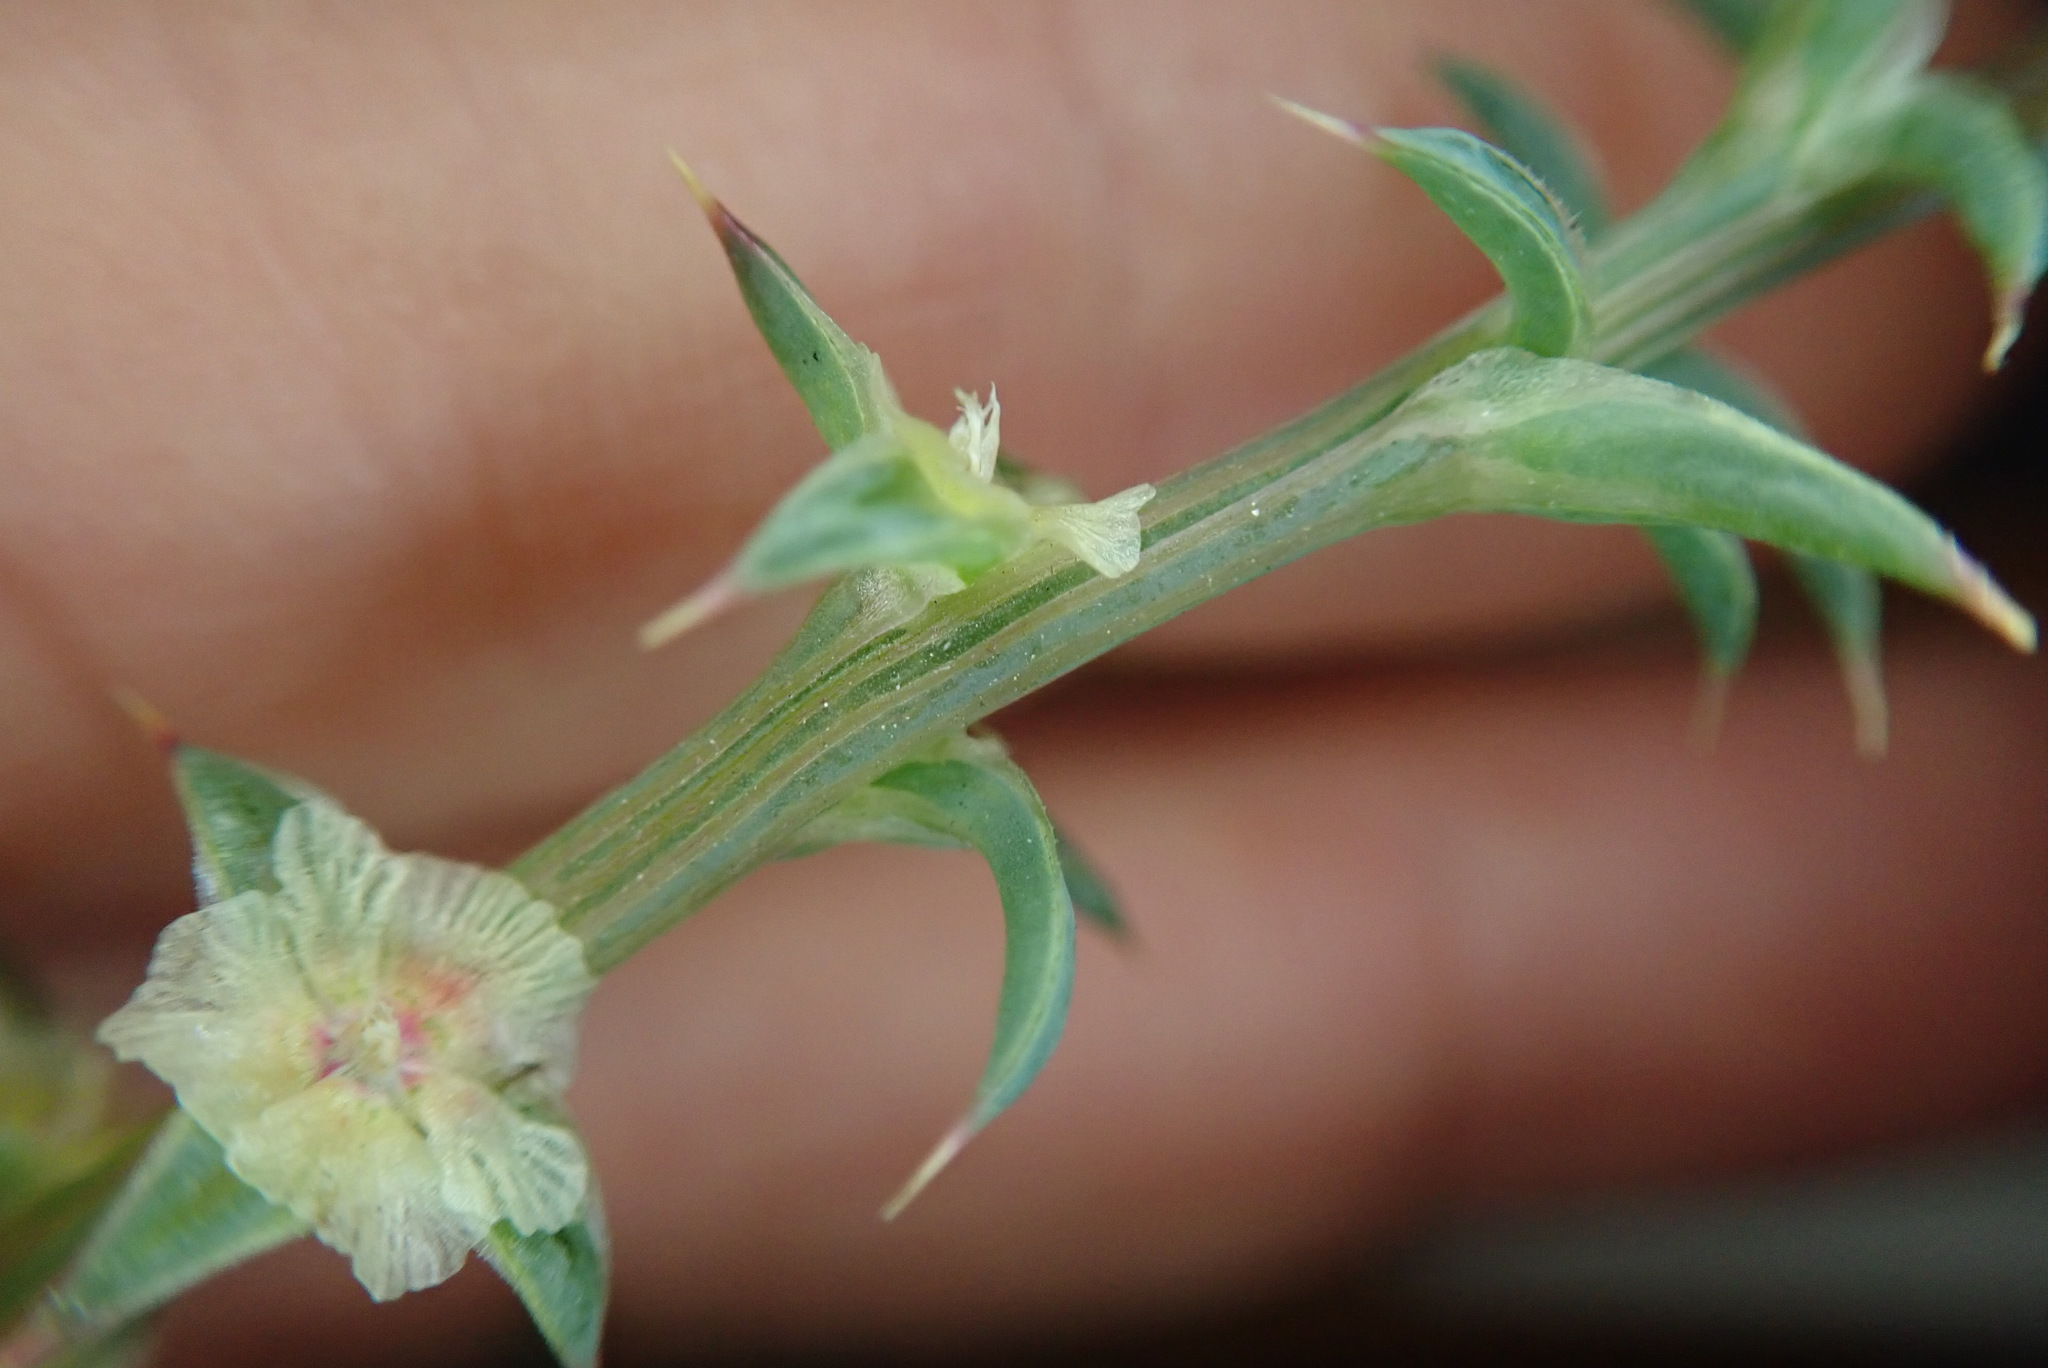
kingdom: Plantae
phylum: Tracheophyta
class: Magnoliopsida
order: Caryophyllales
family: Amaranthaceae
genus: Salsola
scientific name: Salsola australis
